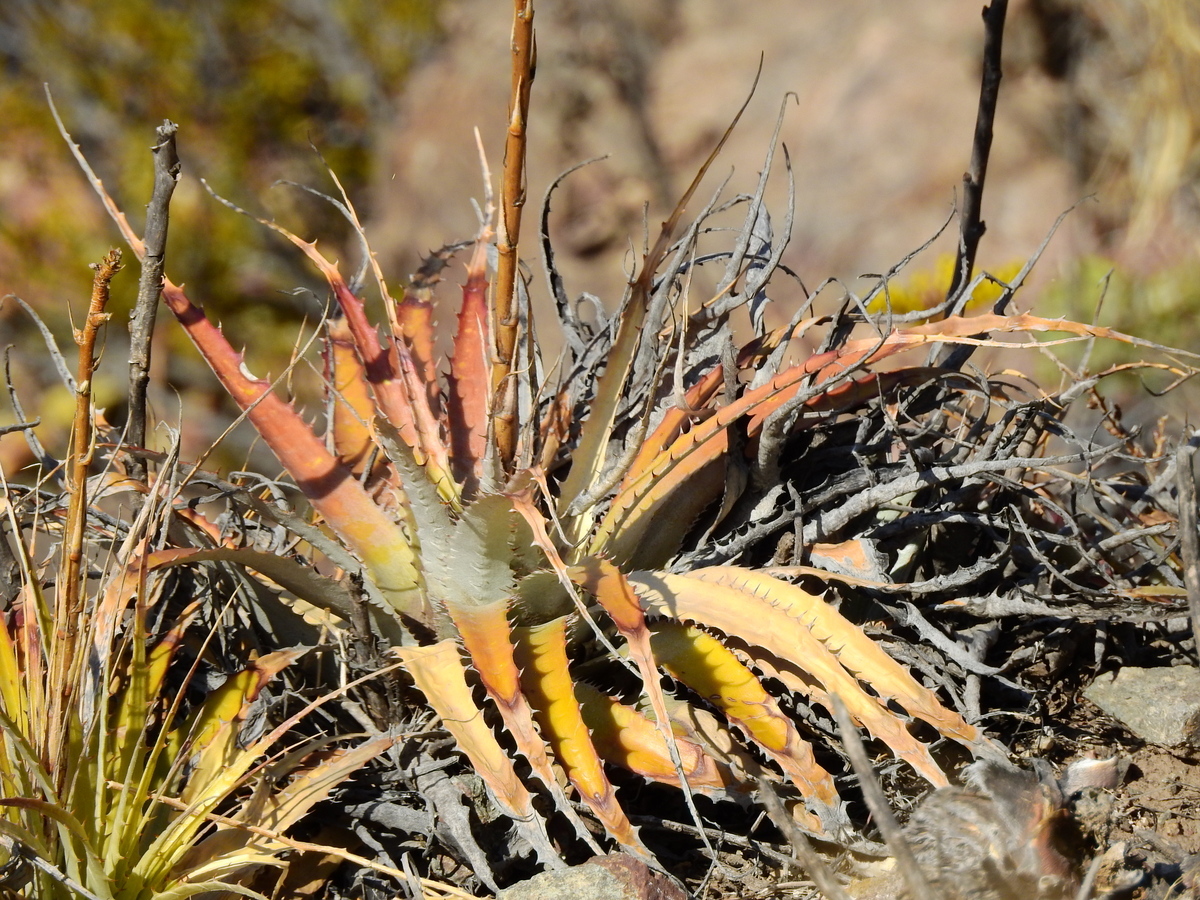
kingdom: Plantae
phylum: Tracheophyta
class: Liliopsida
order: Poales
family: Bromeliaceae
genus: Deuterocohnia
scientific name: Deuterocohnia longipetala
